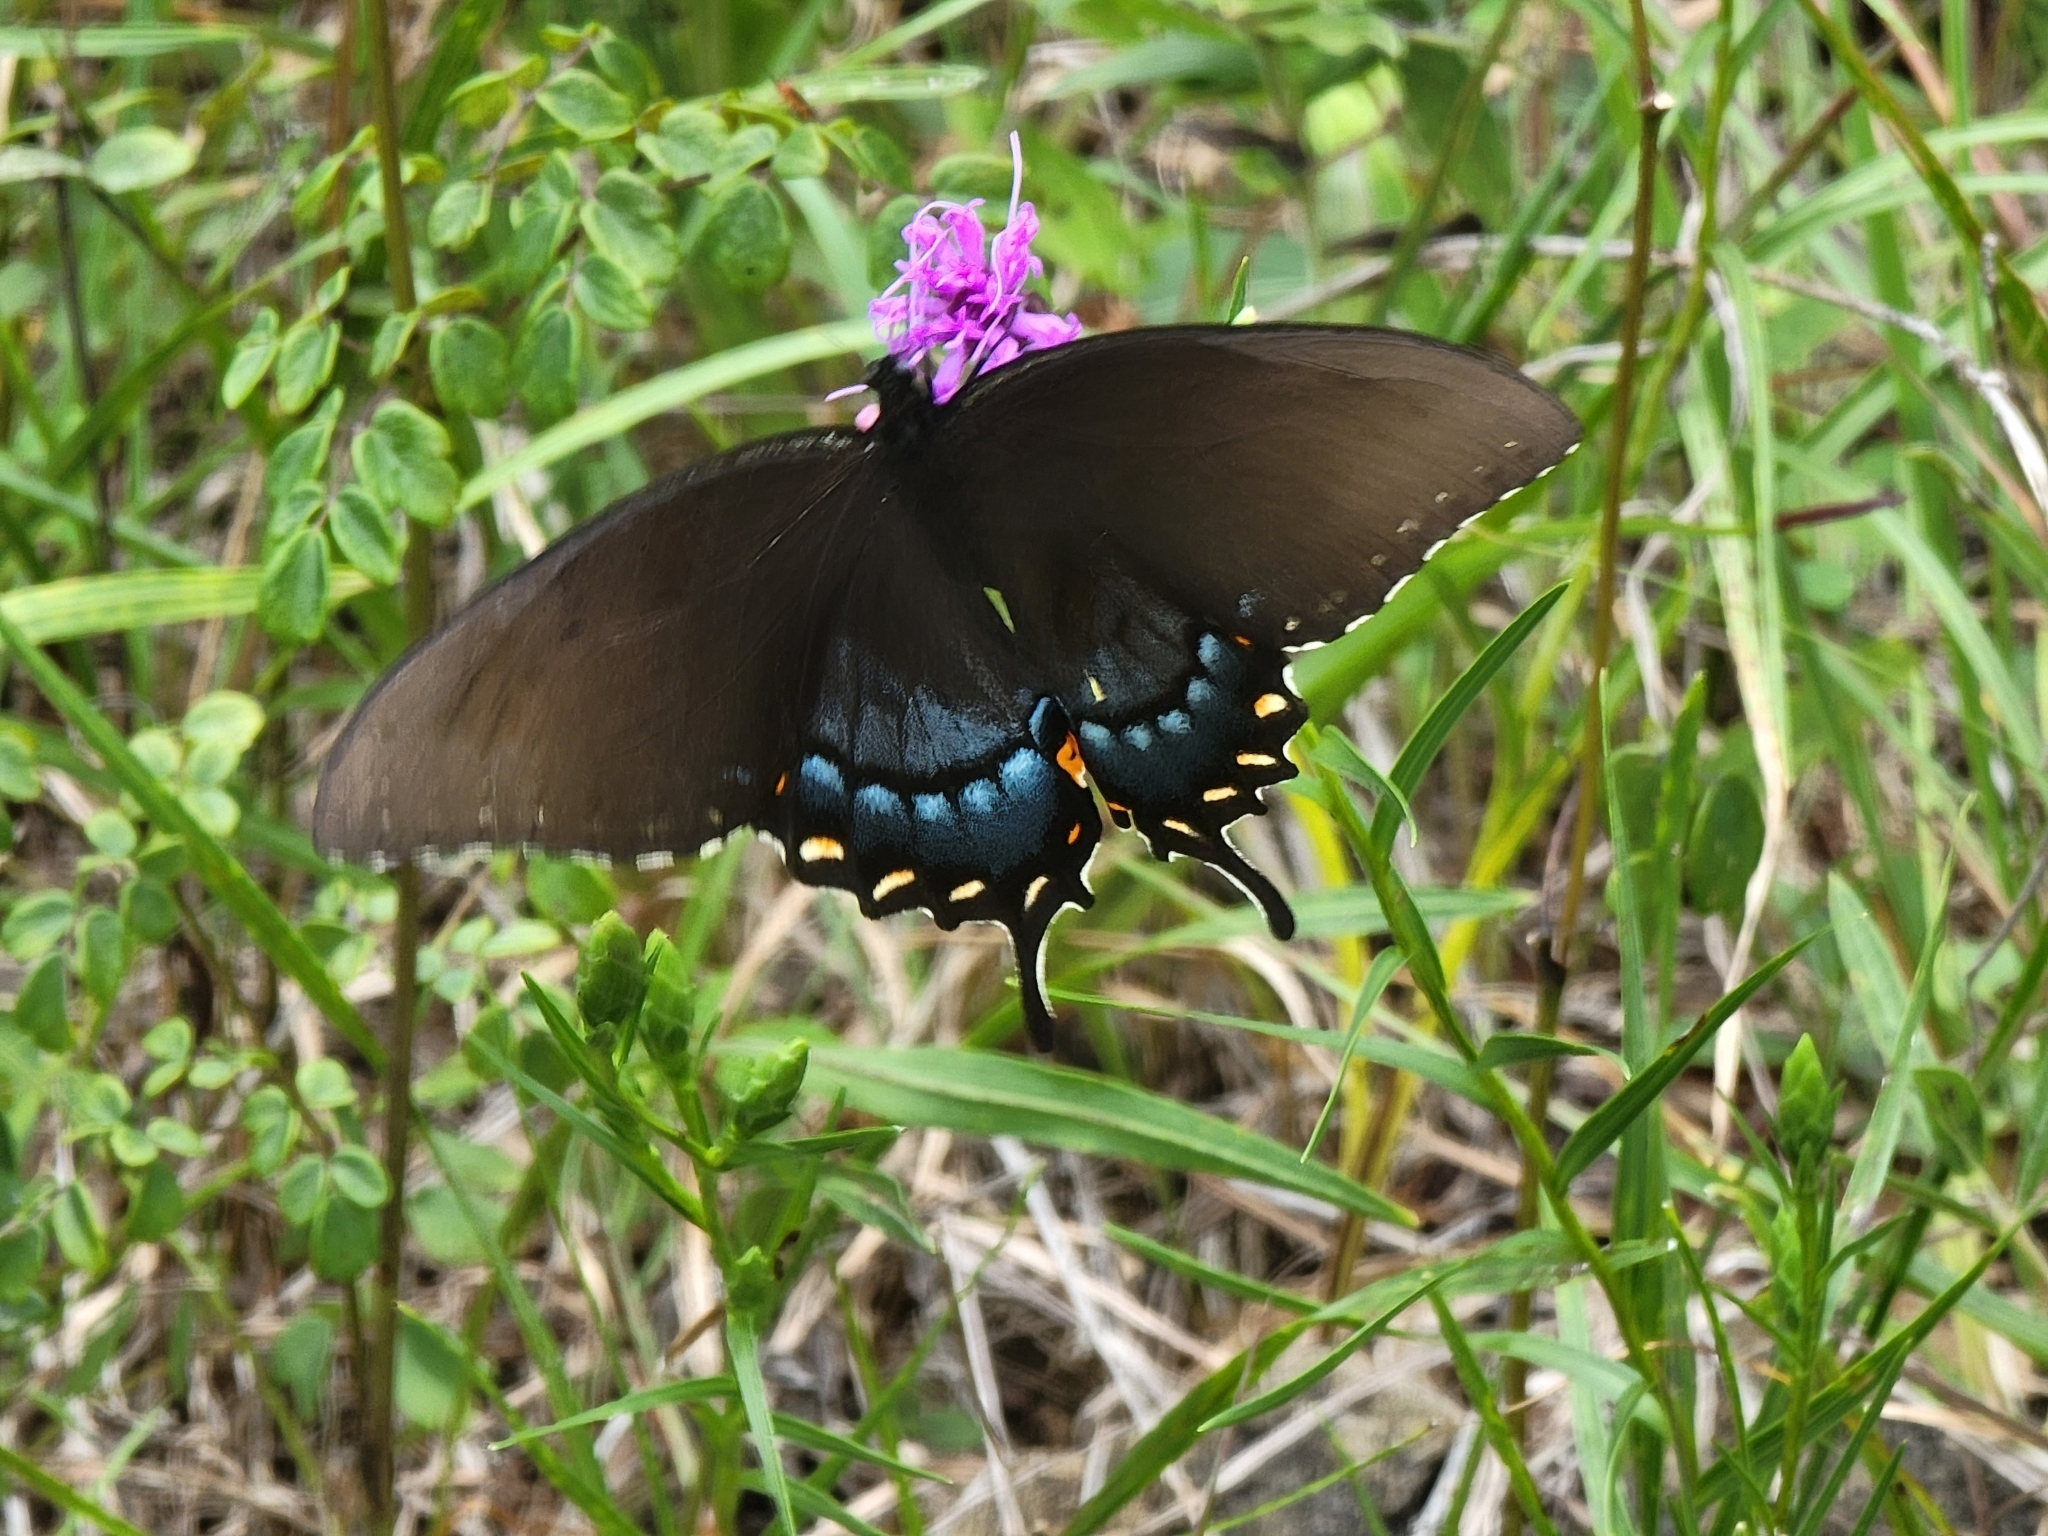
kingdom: Animalia
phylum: Arthropoda
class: Insecta
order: Lepidoptera
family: Papilionidae
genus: Papilio
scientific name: Papilio glaucus
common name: Tiger swallowtail
